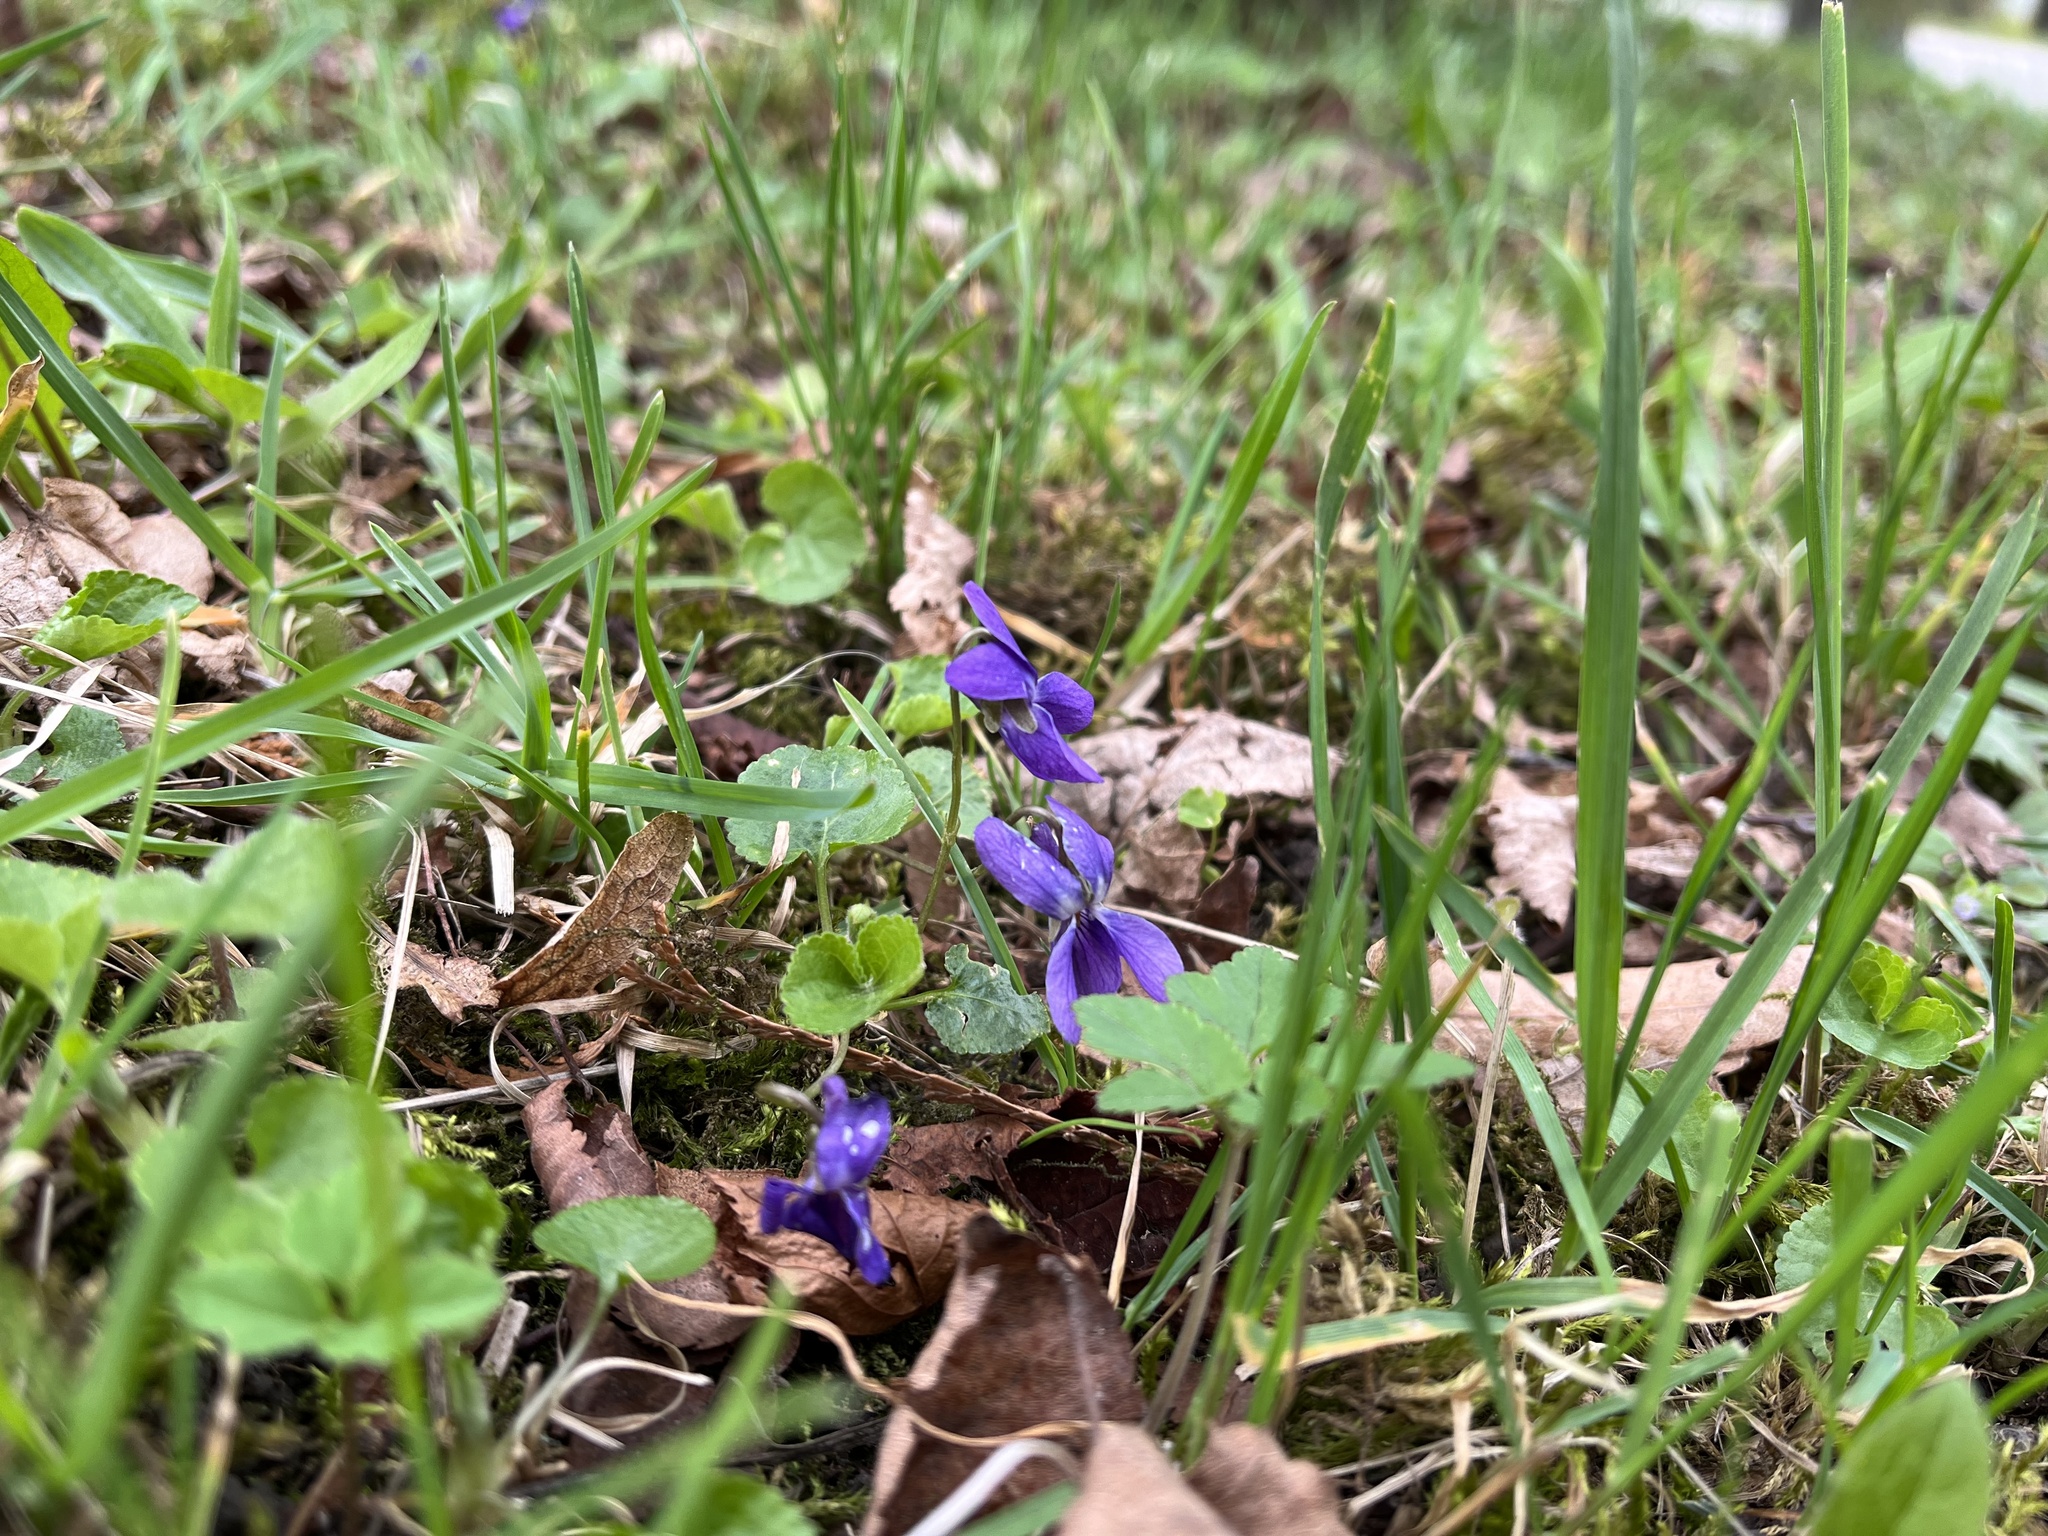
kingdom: Plantae
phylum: Tracheophyta
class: Magnoliopsida
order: Malpighiales
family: Violaceae
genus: Viola
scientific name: Viola odorata
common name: Sweet violet
